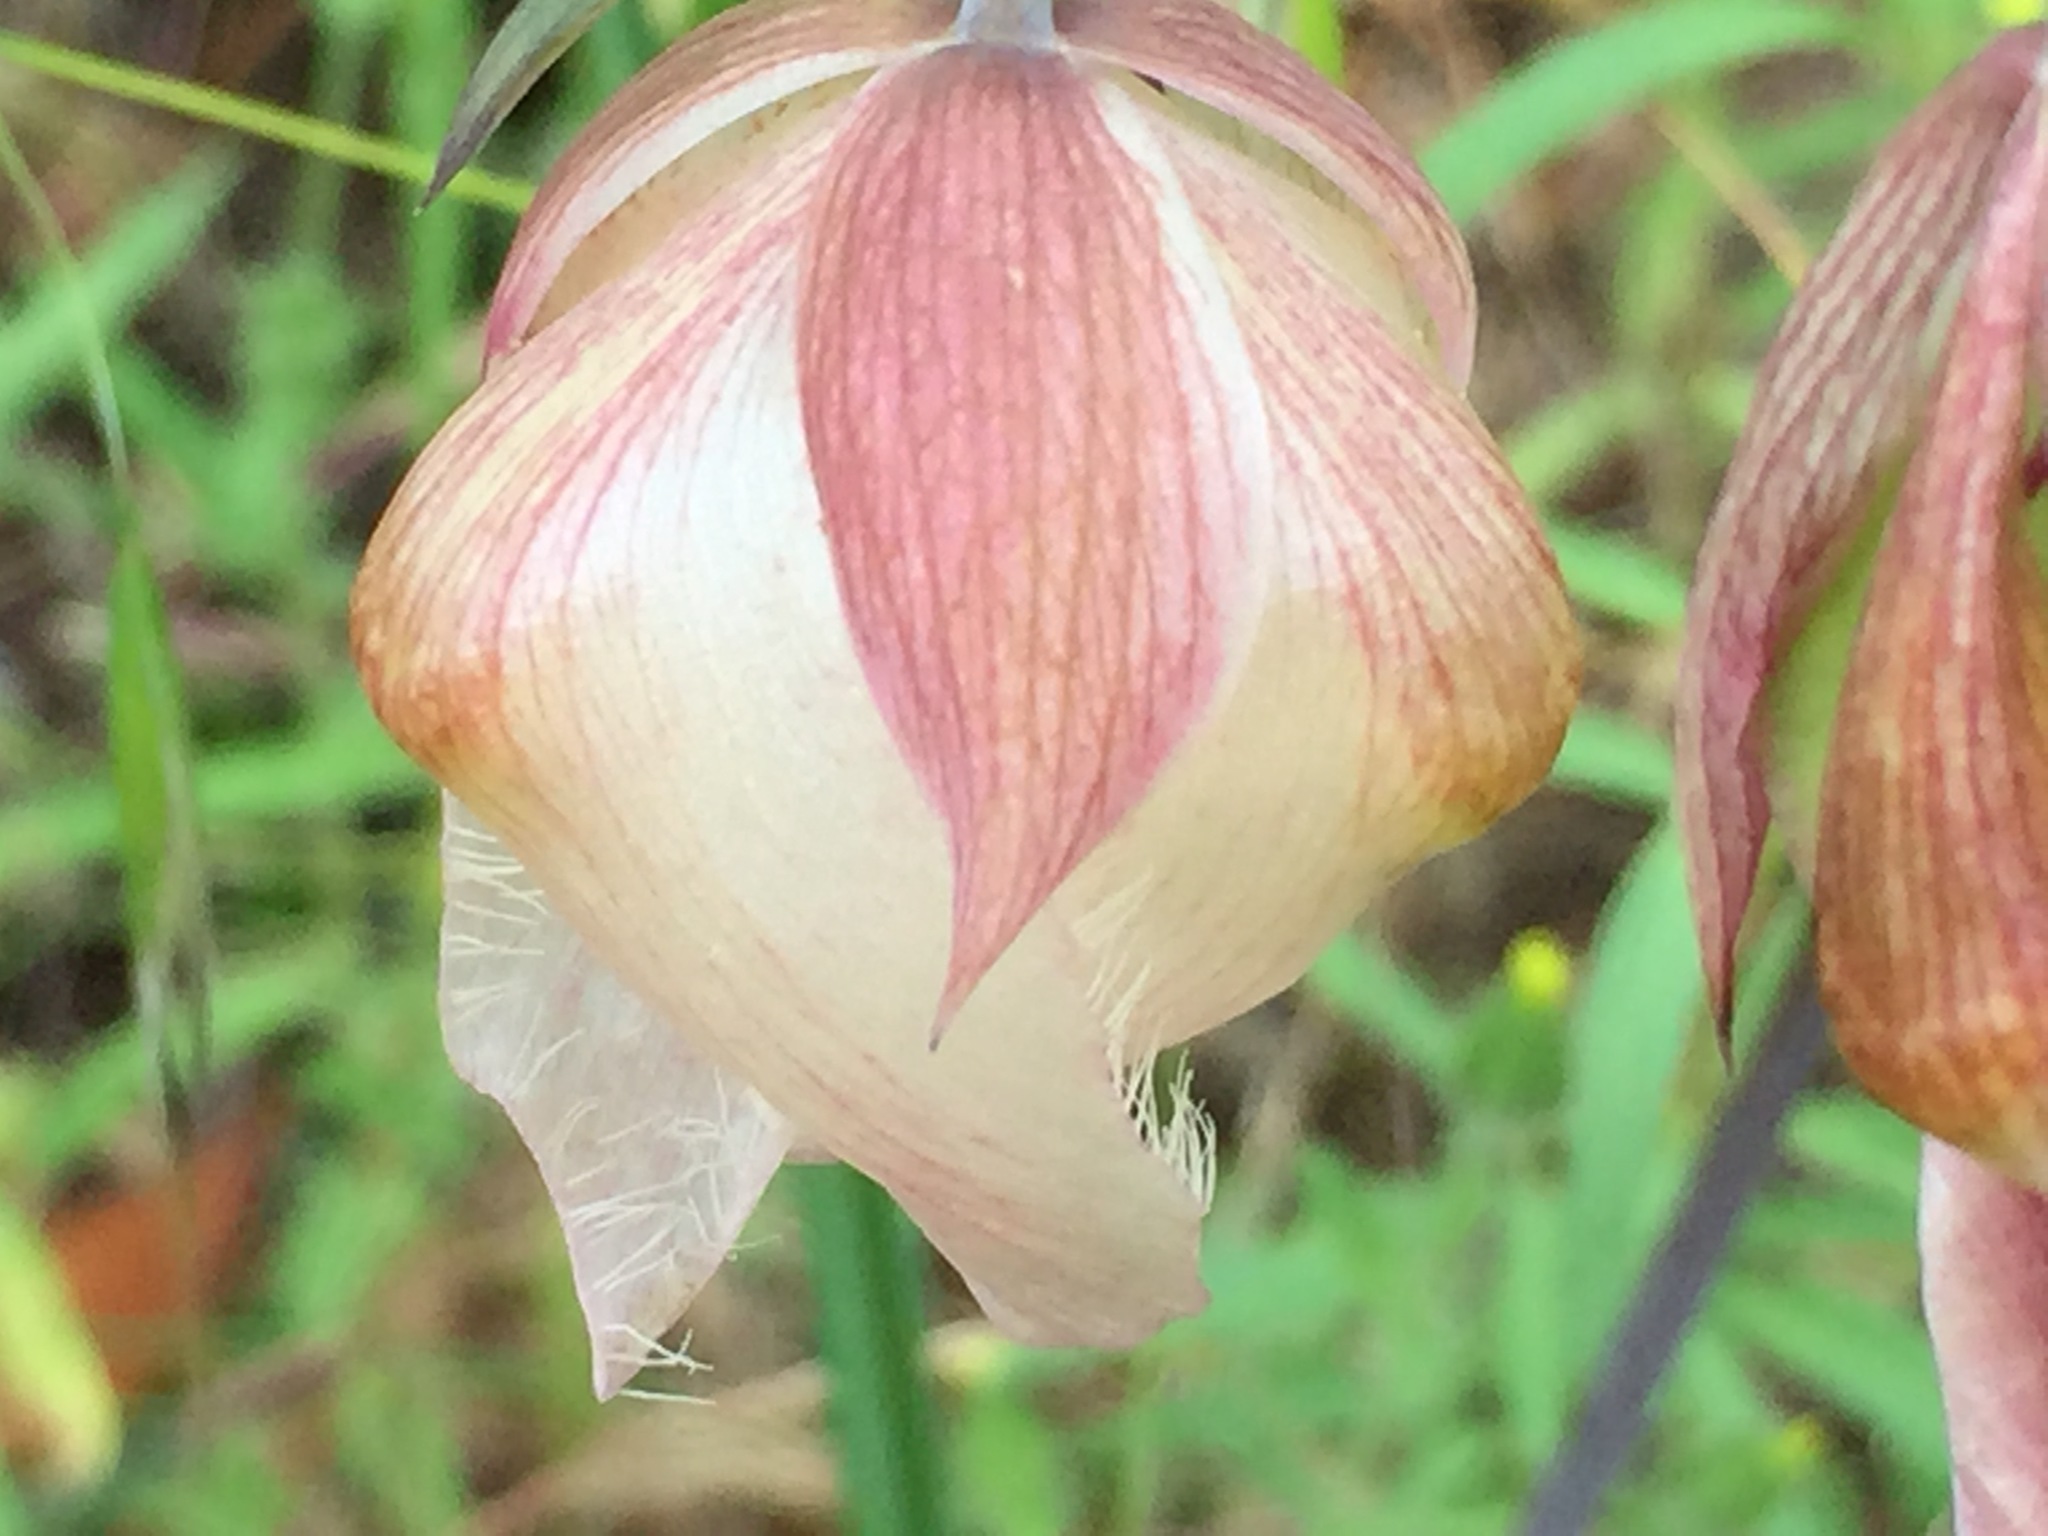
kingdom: Plantae
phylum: Tracheophyta
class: Liliopsida
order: Liliales
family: Liliaceae
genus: Calochortus
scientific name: Calochortus albus
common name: Fairy-lantern
